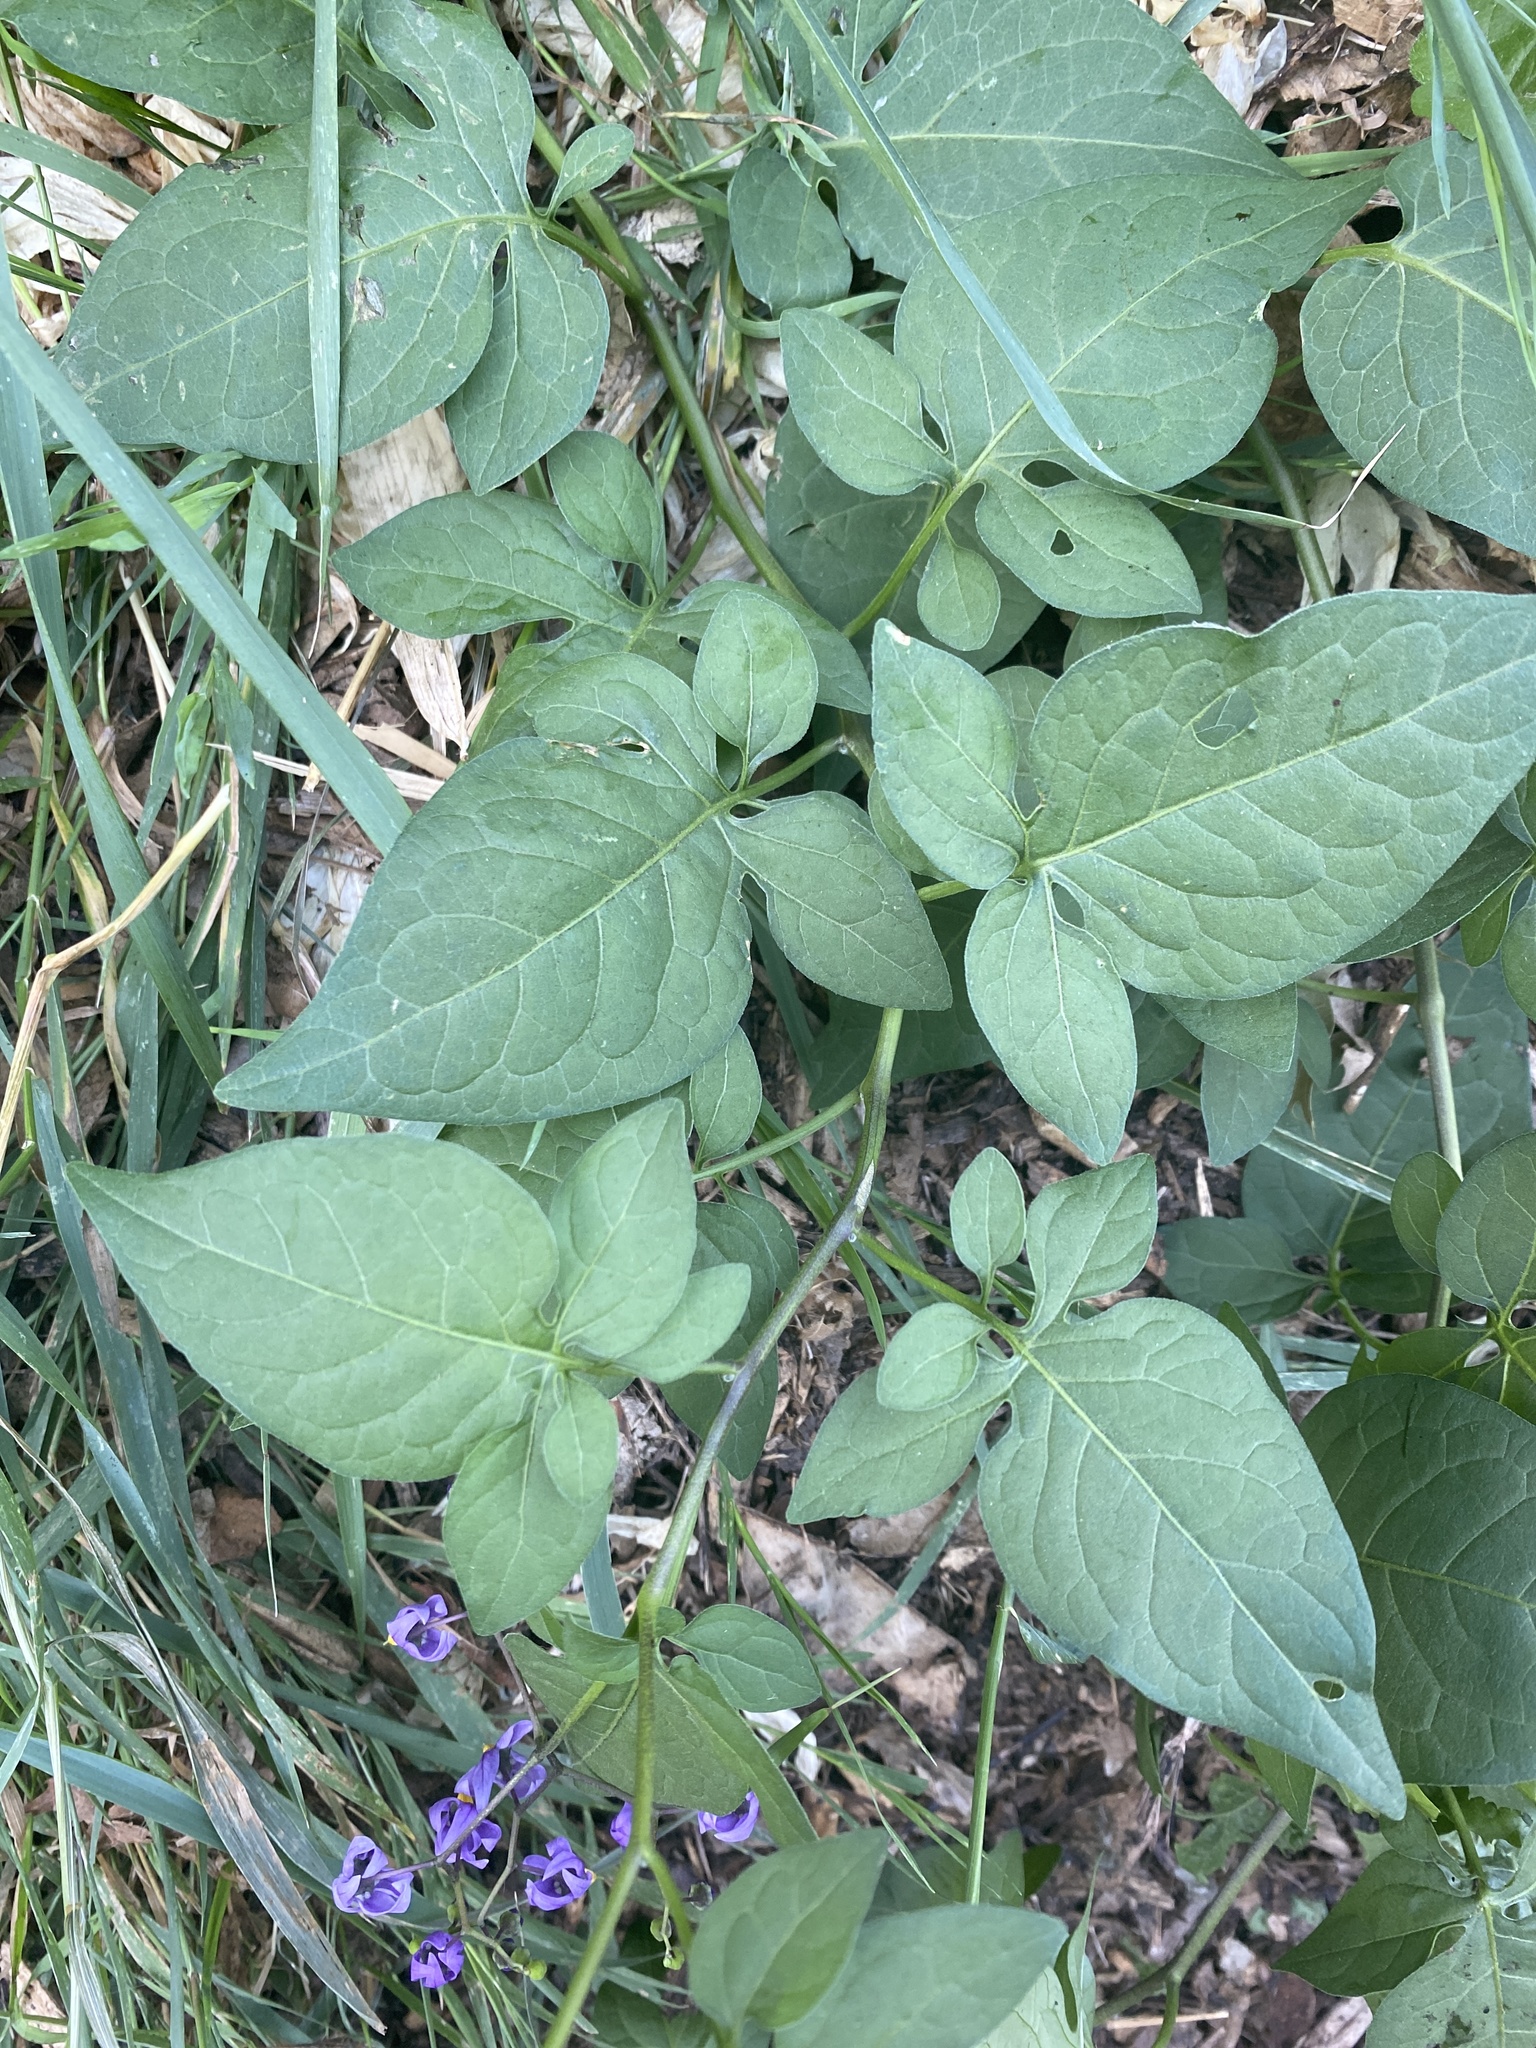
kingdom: Plantae
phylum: Tracheophyta
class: Magnoliopsida
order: Solanales
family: Solanaceae
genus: Solanum
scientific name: Solanum dulcamara
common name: Climbing nightshade
